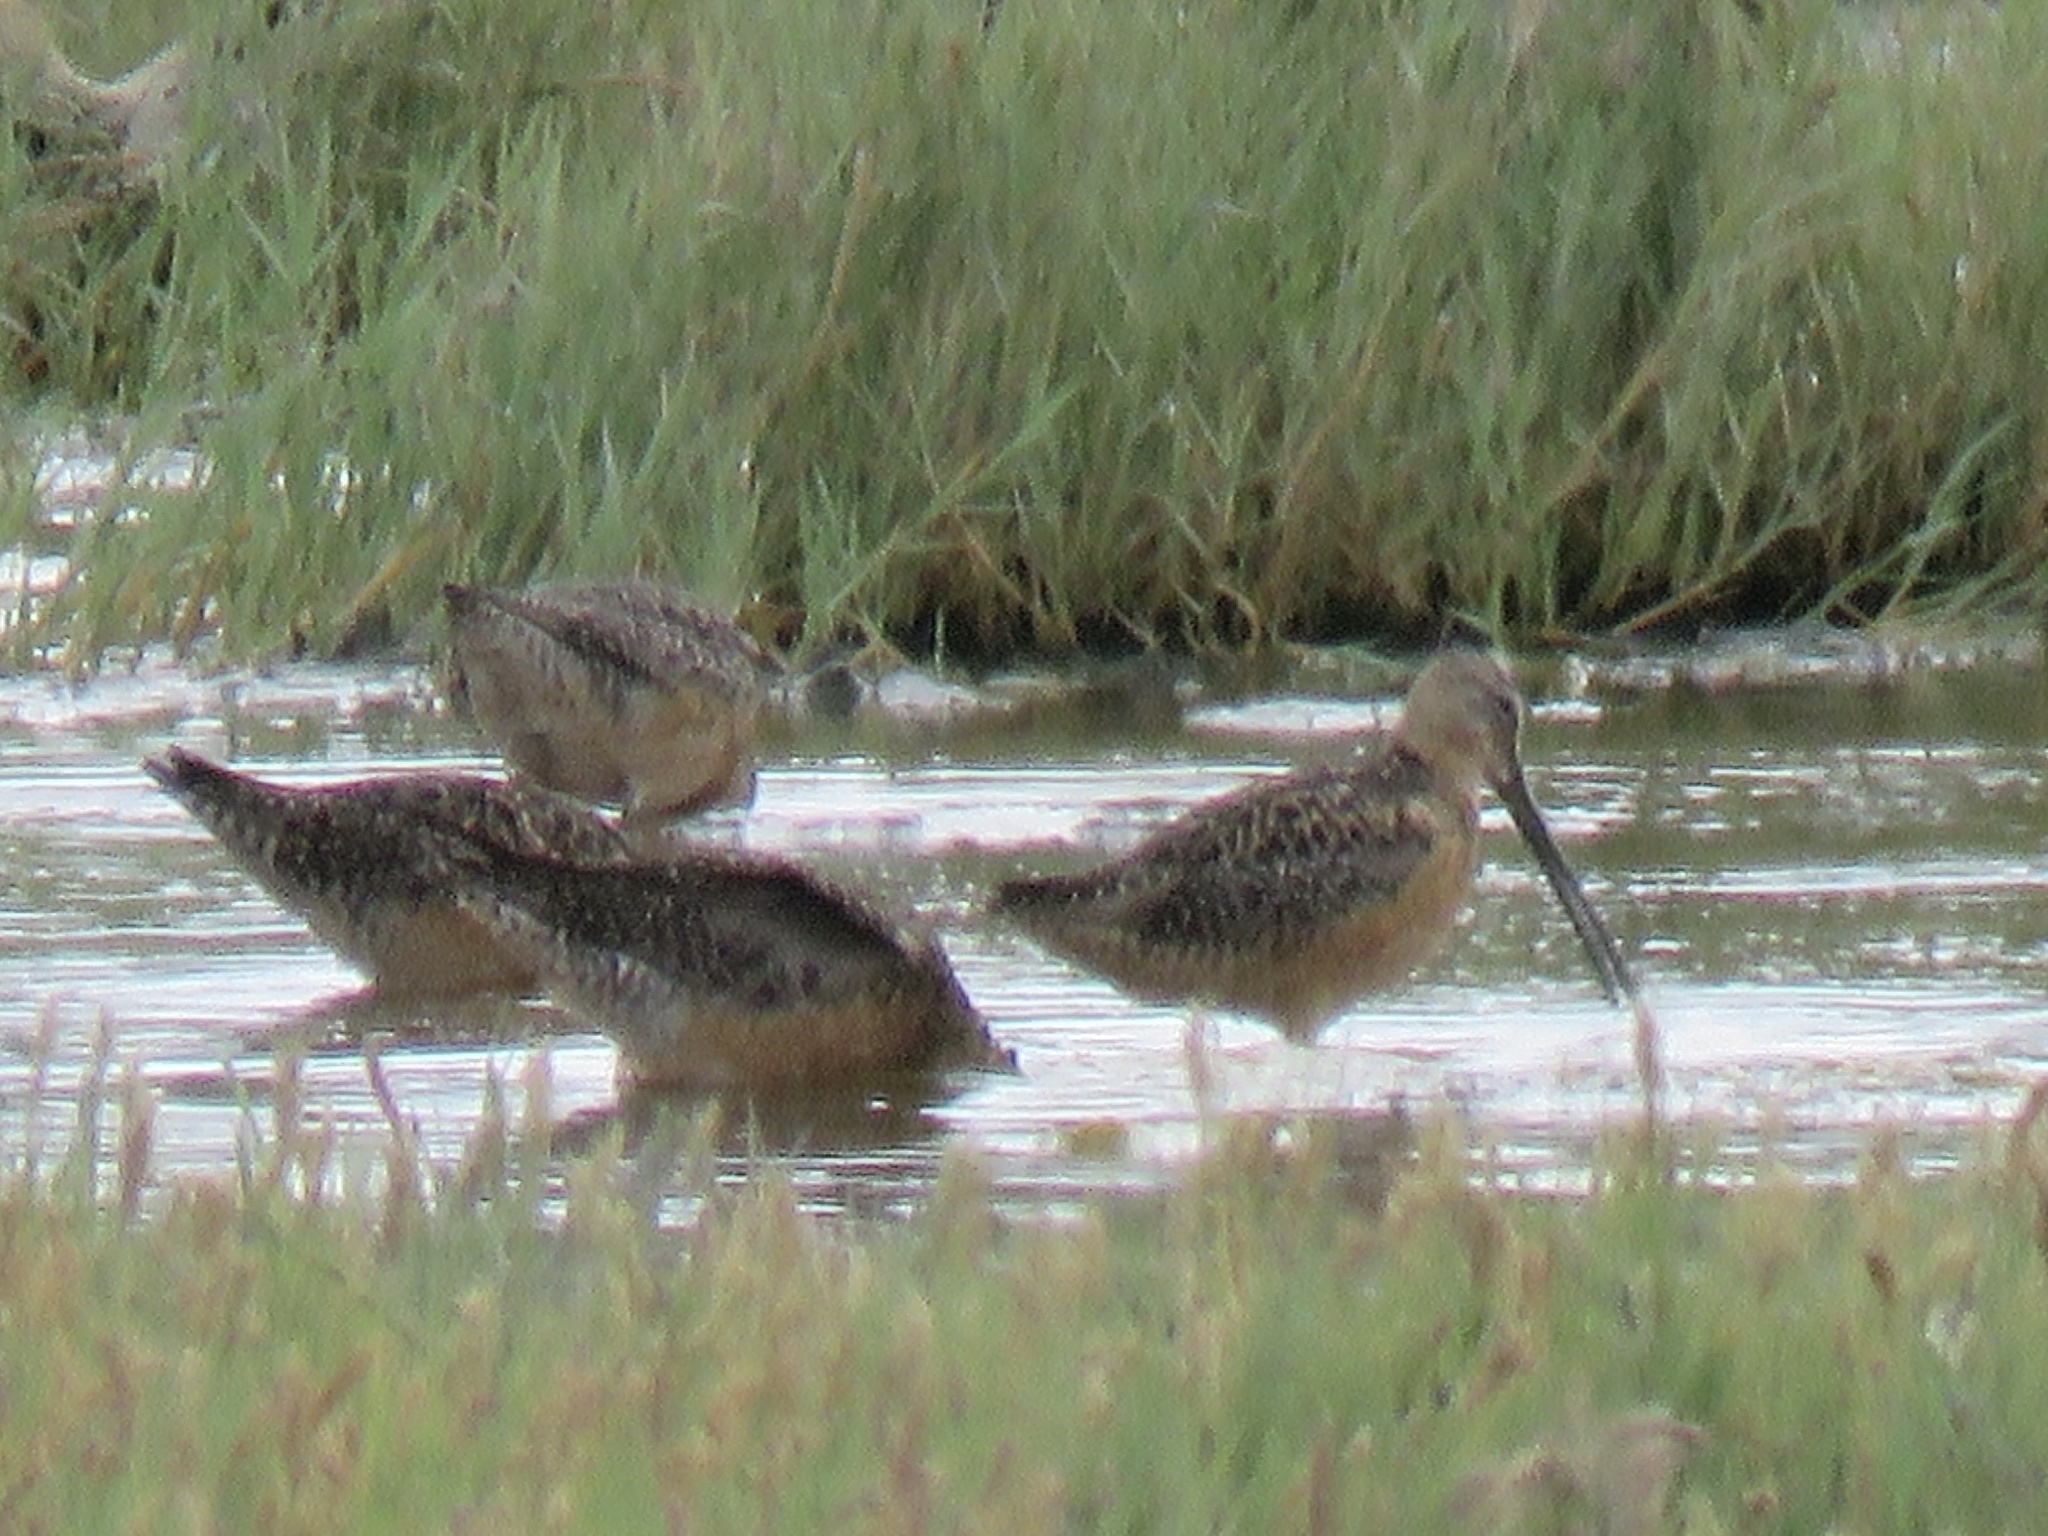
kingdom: Animalia
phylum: Chordata
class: Aves
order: Charadriiformes
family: Scolopacidae
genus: Limnodromus
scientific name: Limnodromus scolopaceus
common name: Long-billed dowitcher
